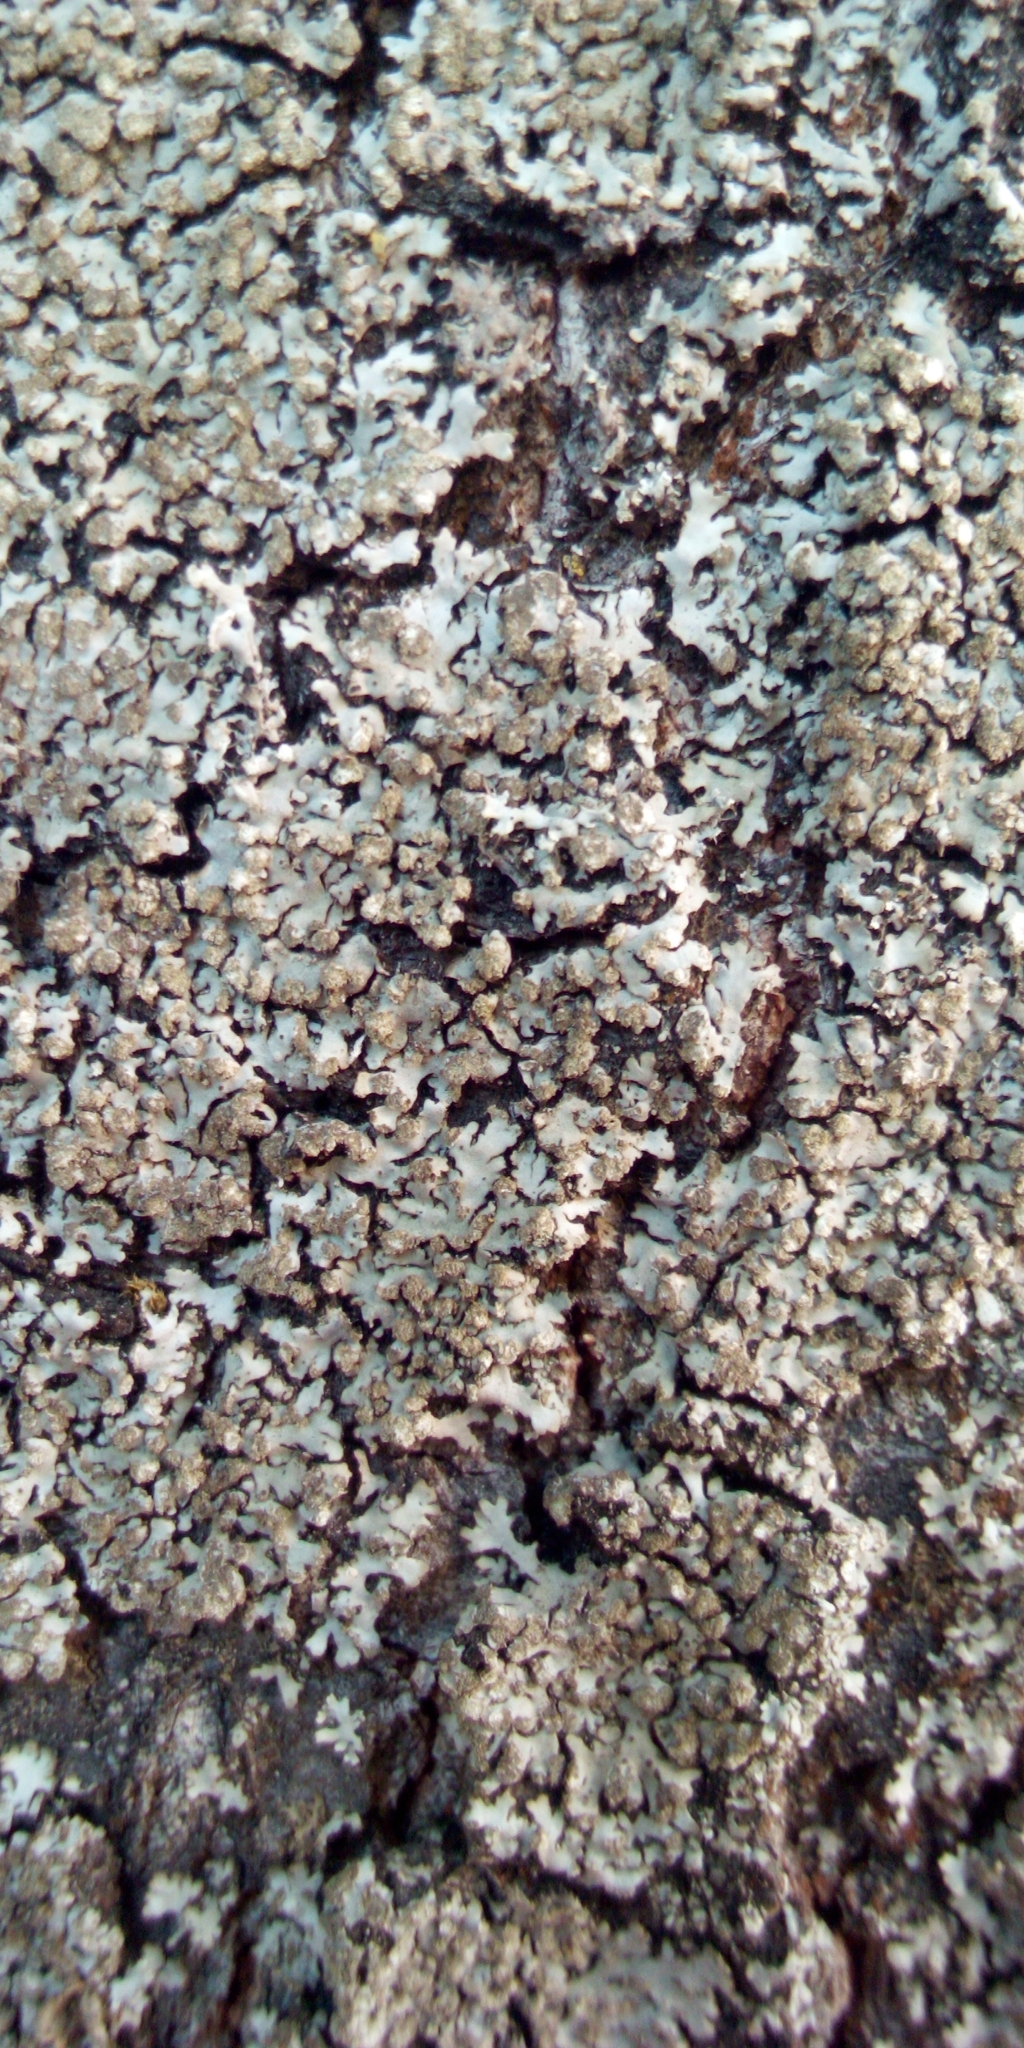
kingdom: Fungi
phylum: Ascomycota
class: Lecanoromycetes
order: Caliciales
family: Physciaceae
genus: Phaeophyscia
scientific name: Phaeophyscia orbicularis
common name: Mealy shadow lichen
